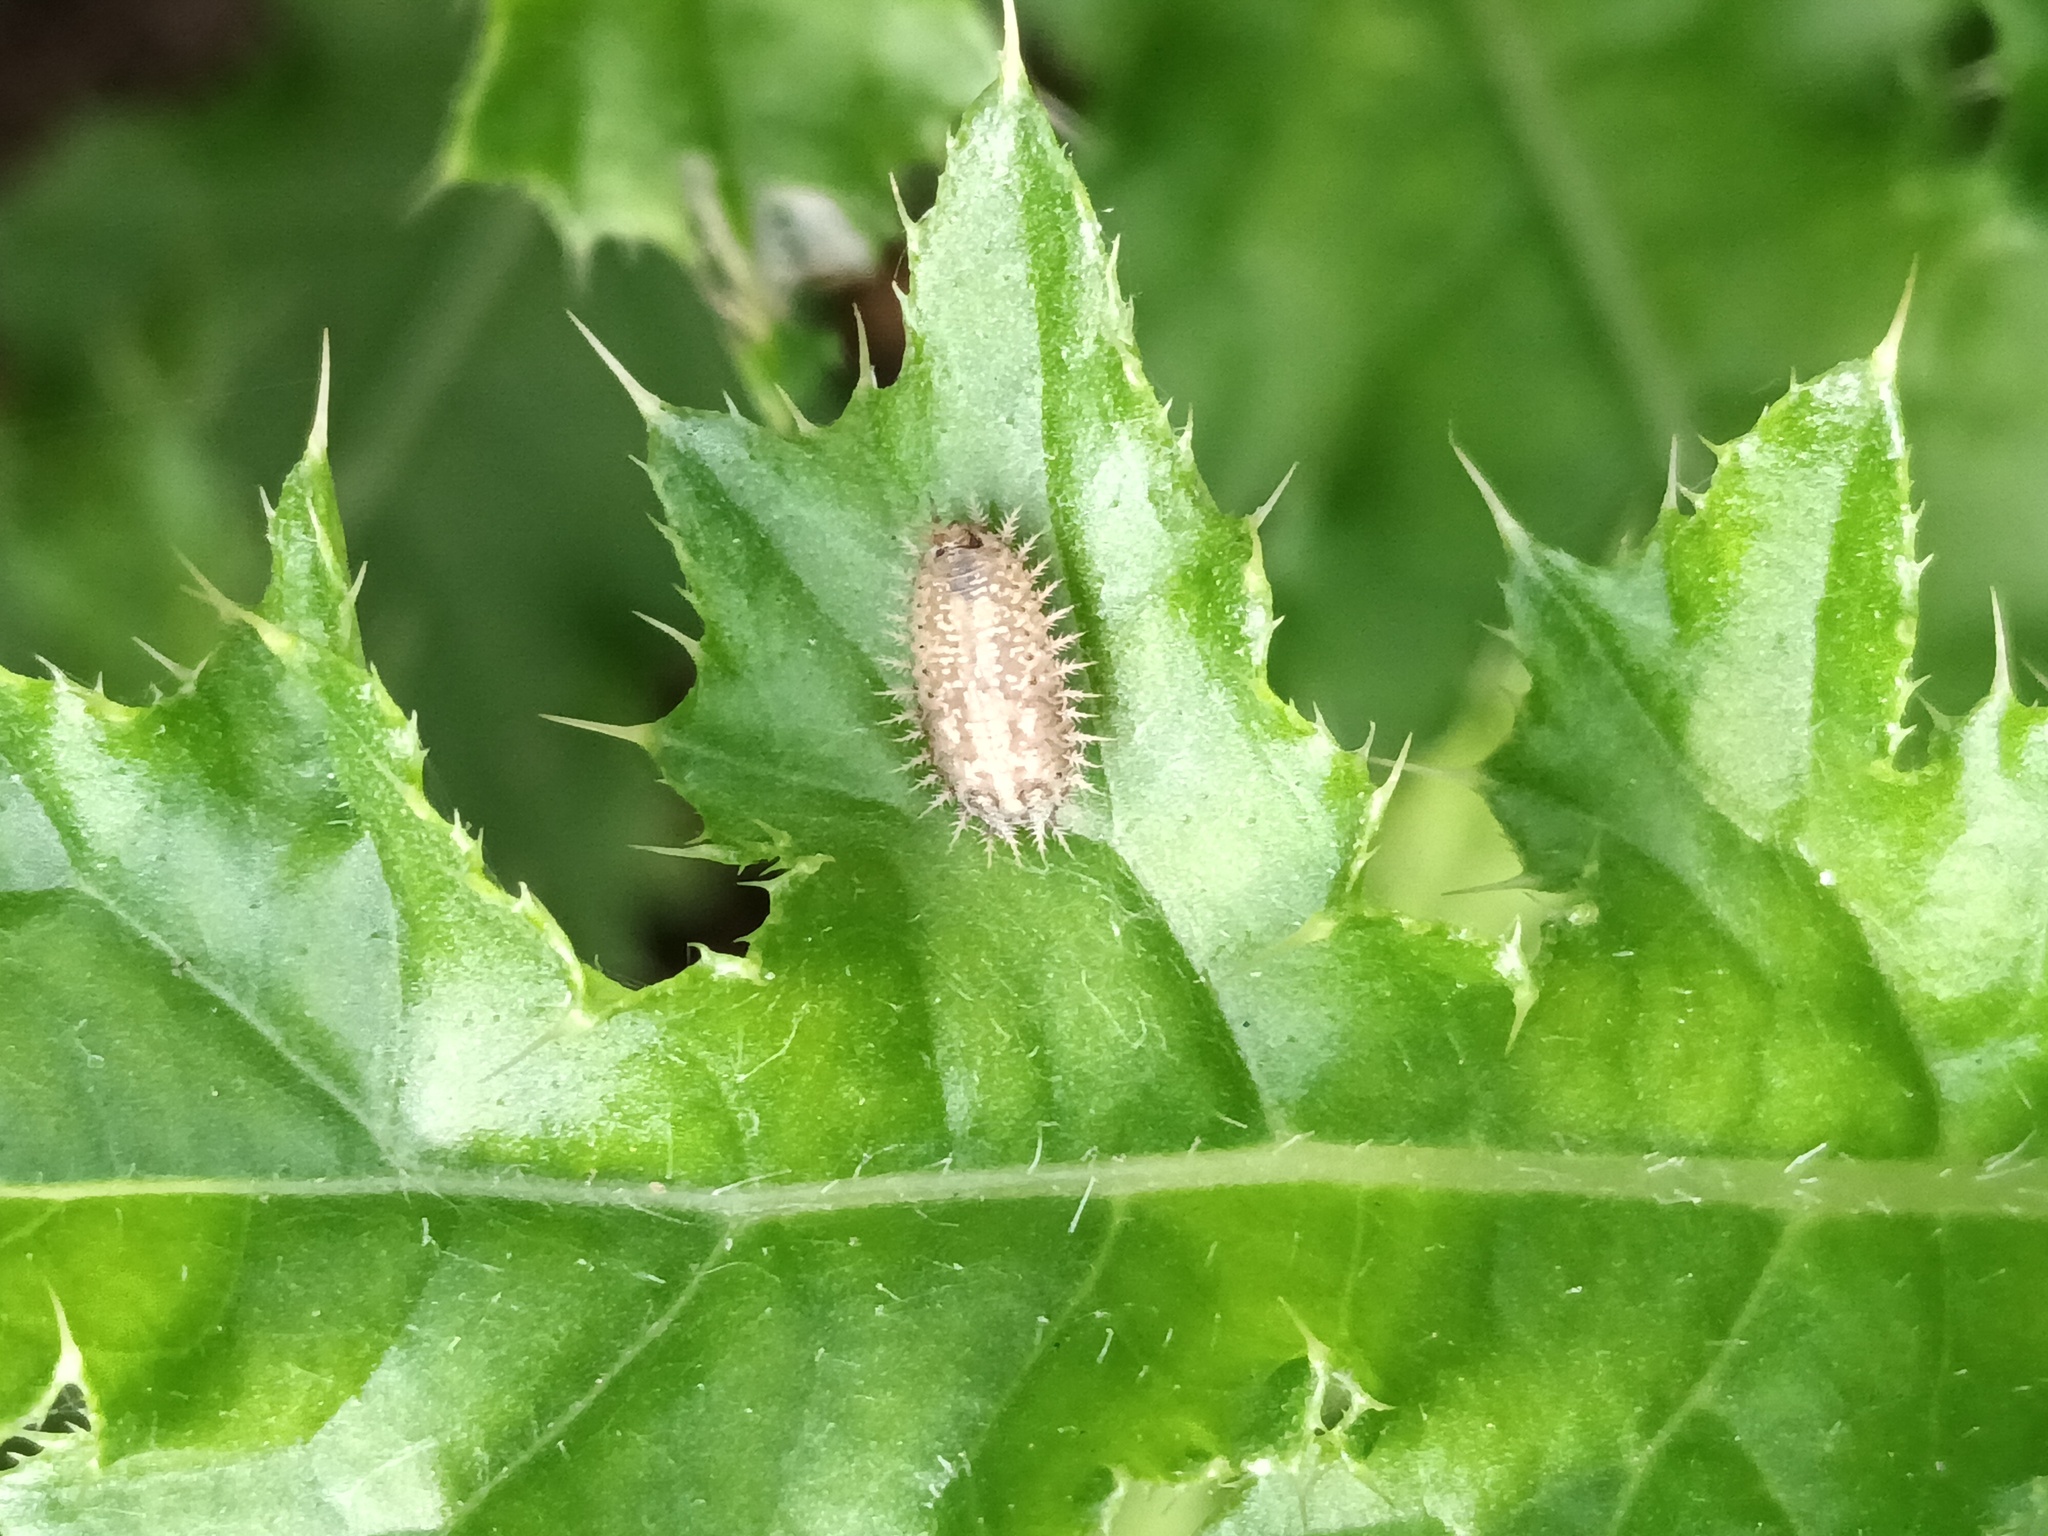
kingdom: Animalia
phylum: Arthropoda
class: Insecta
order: Coleoptera
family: Chrysomelidae
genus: Cassida
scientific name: Cassida rubiginosa
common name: Thistle tortoise beetle
